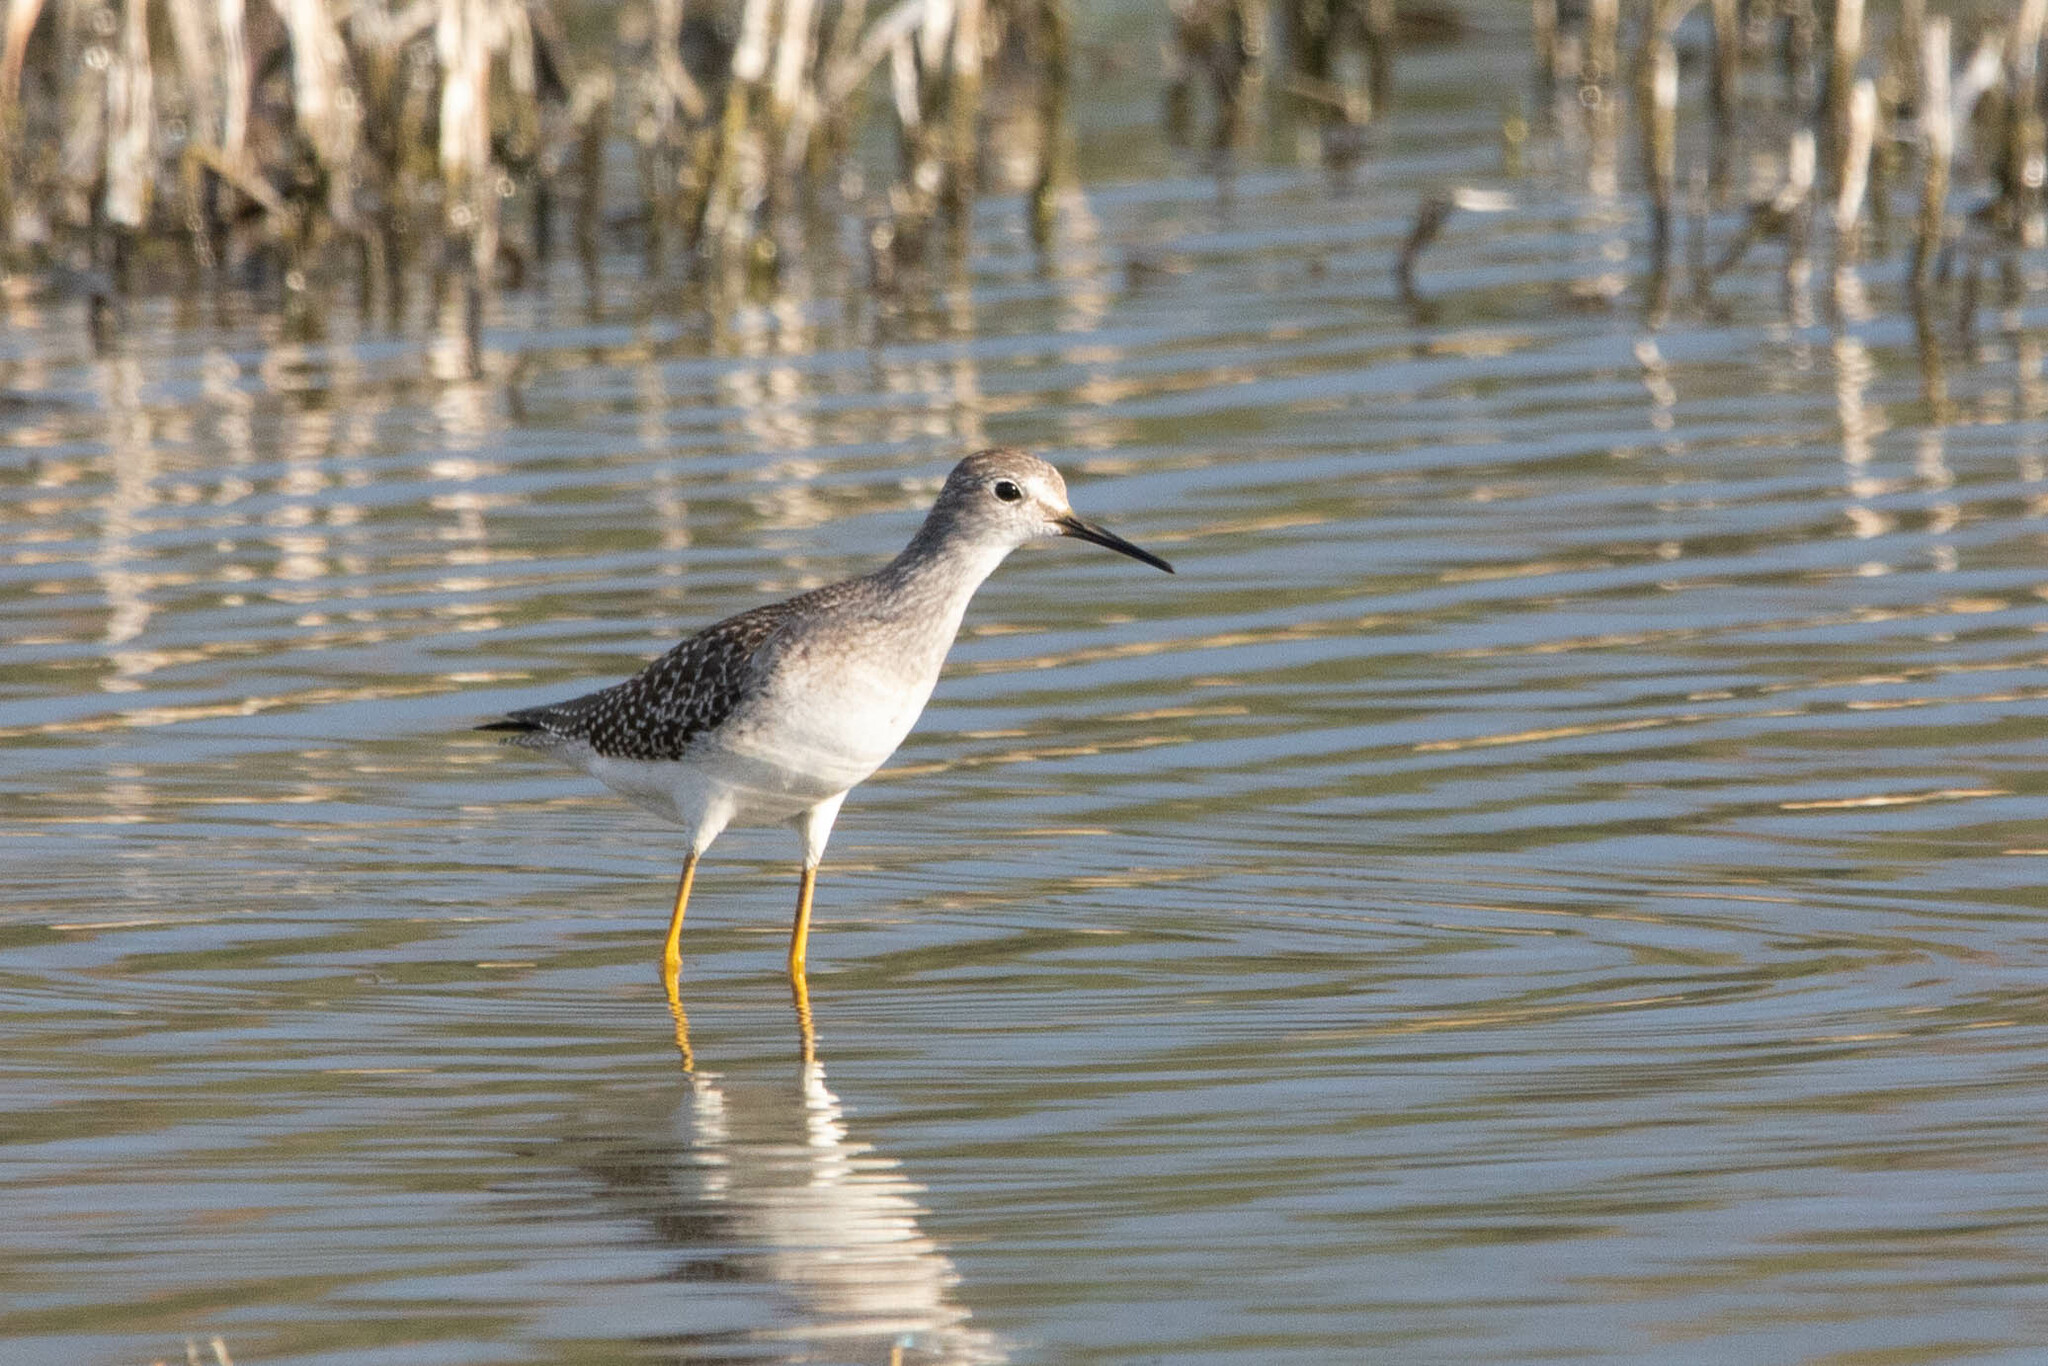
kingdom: Animalia
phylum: Chordata
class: Aves
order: Charadriiformes
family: Scolopacidae
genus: Tringa
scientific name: Tringa flavipes
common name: Lesser yellowlegs
